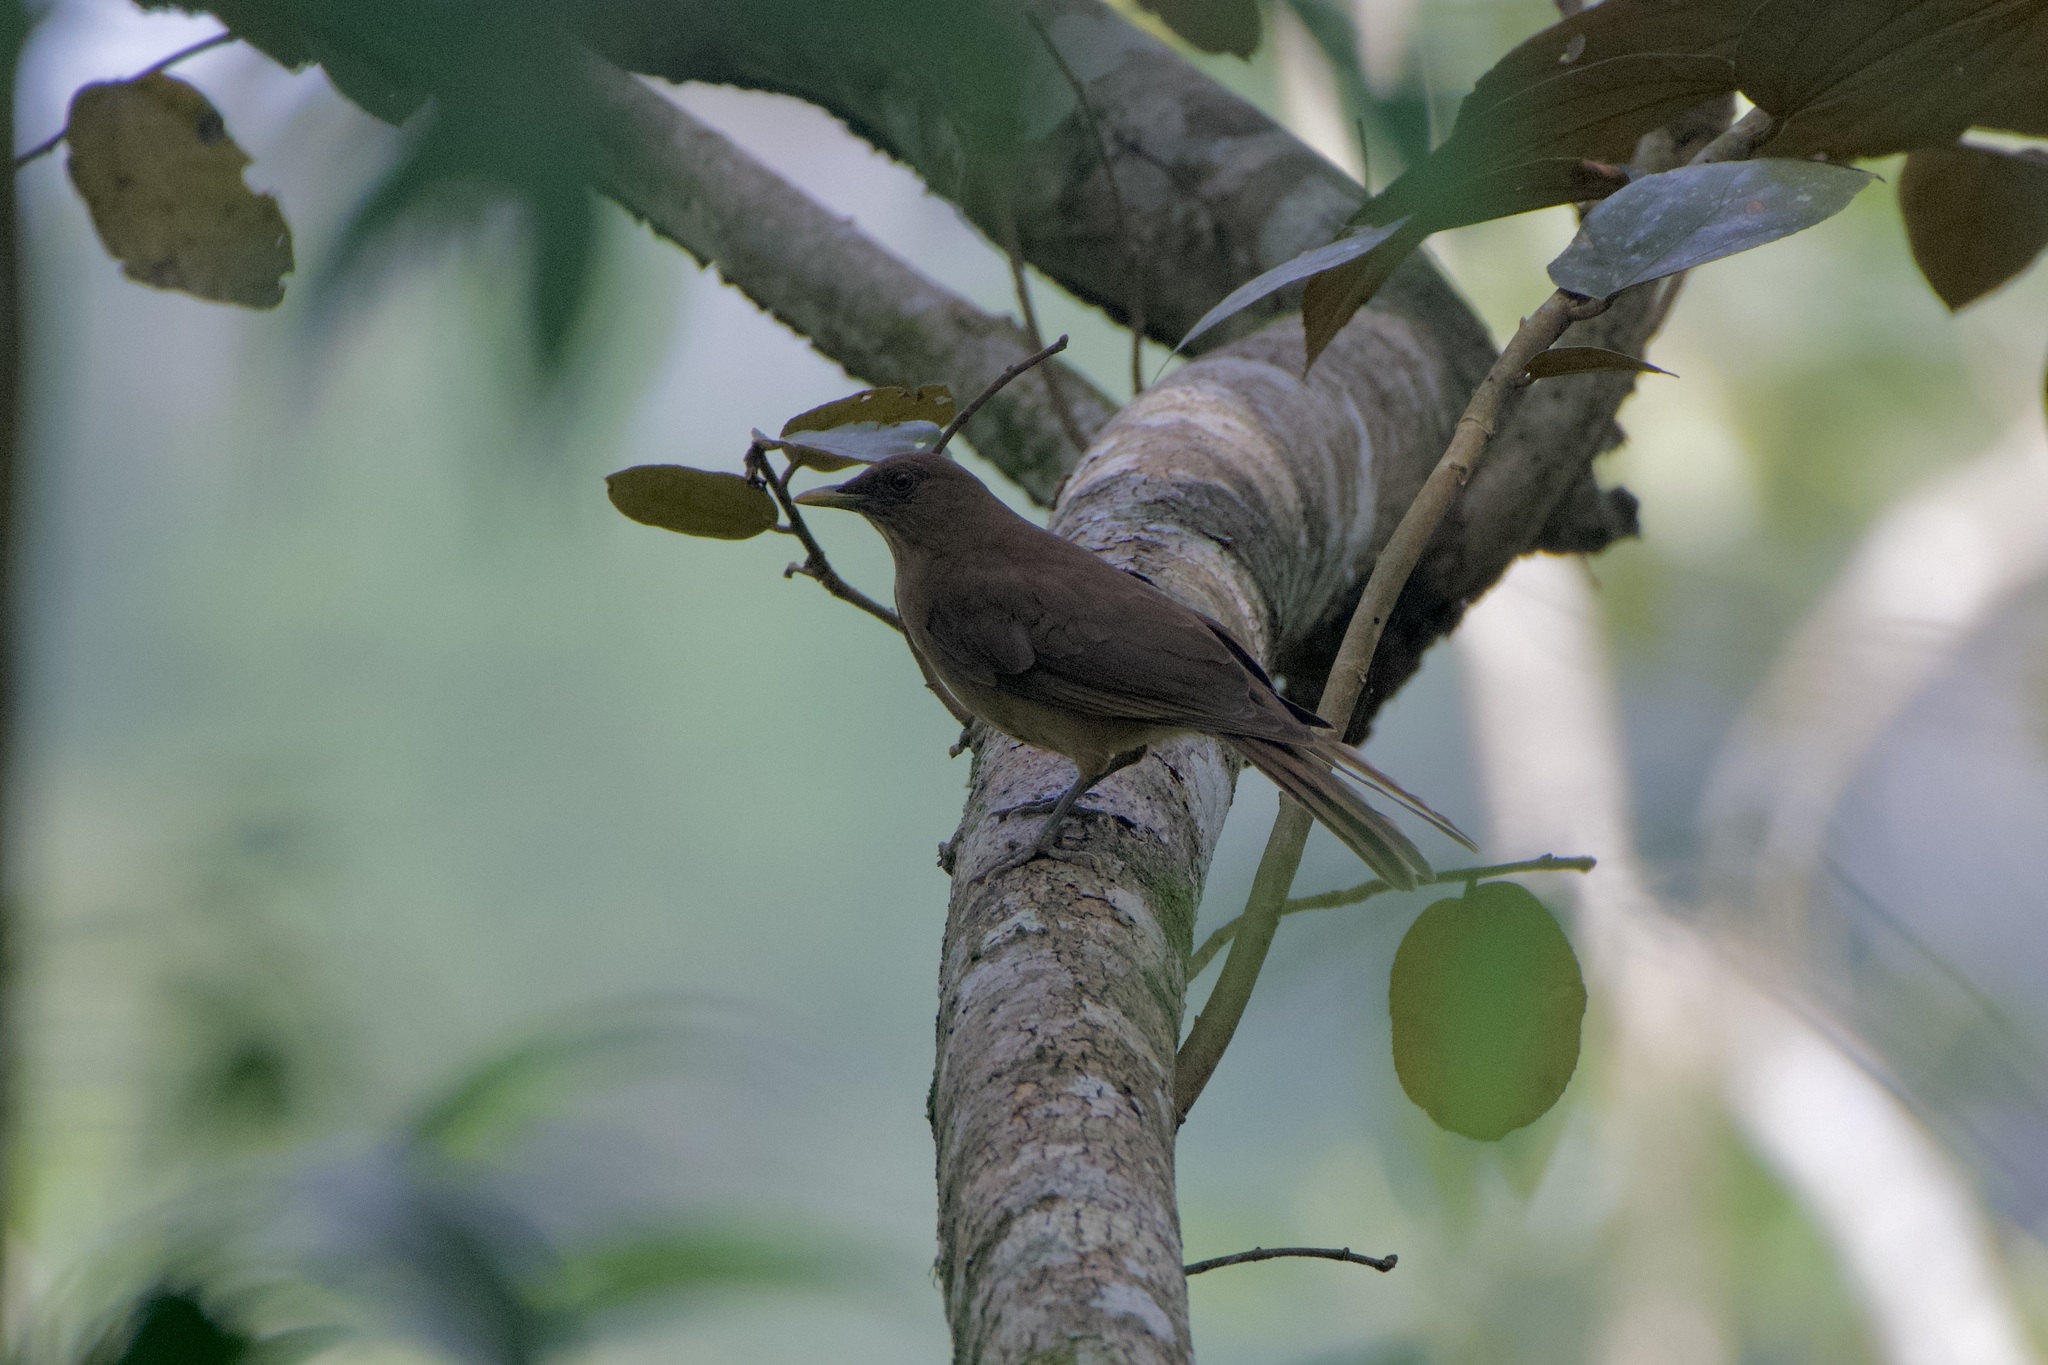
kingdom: Animalia
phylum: Chordata
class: Aves
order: Passeriformes
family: Turdidae
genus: Turdus
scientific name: Turdus grayi
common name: Clay-colored thrush
